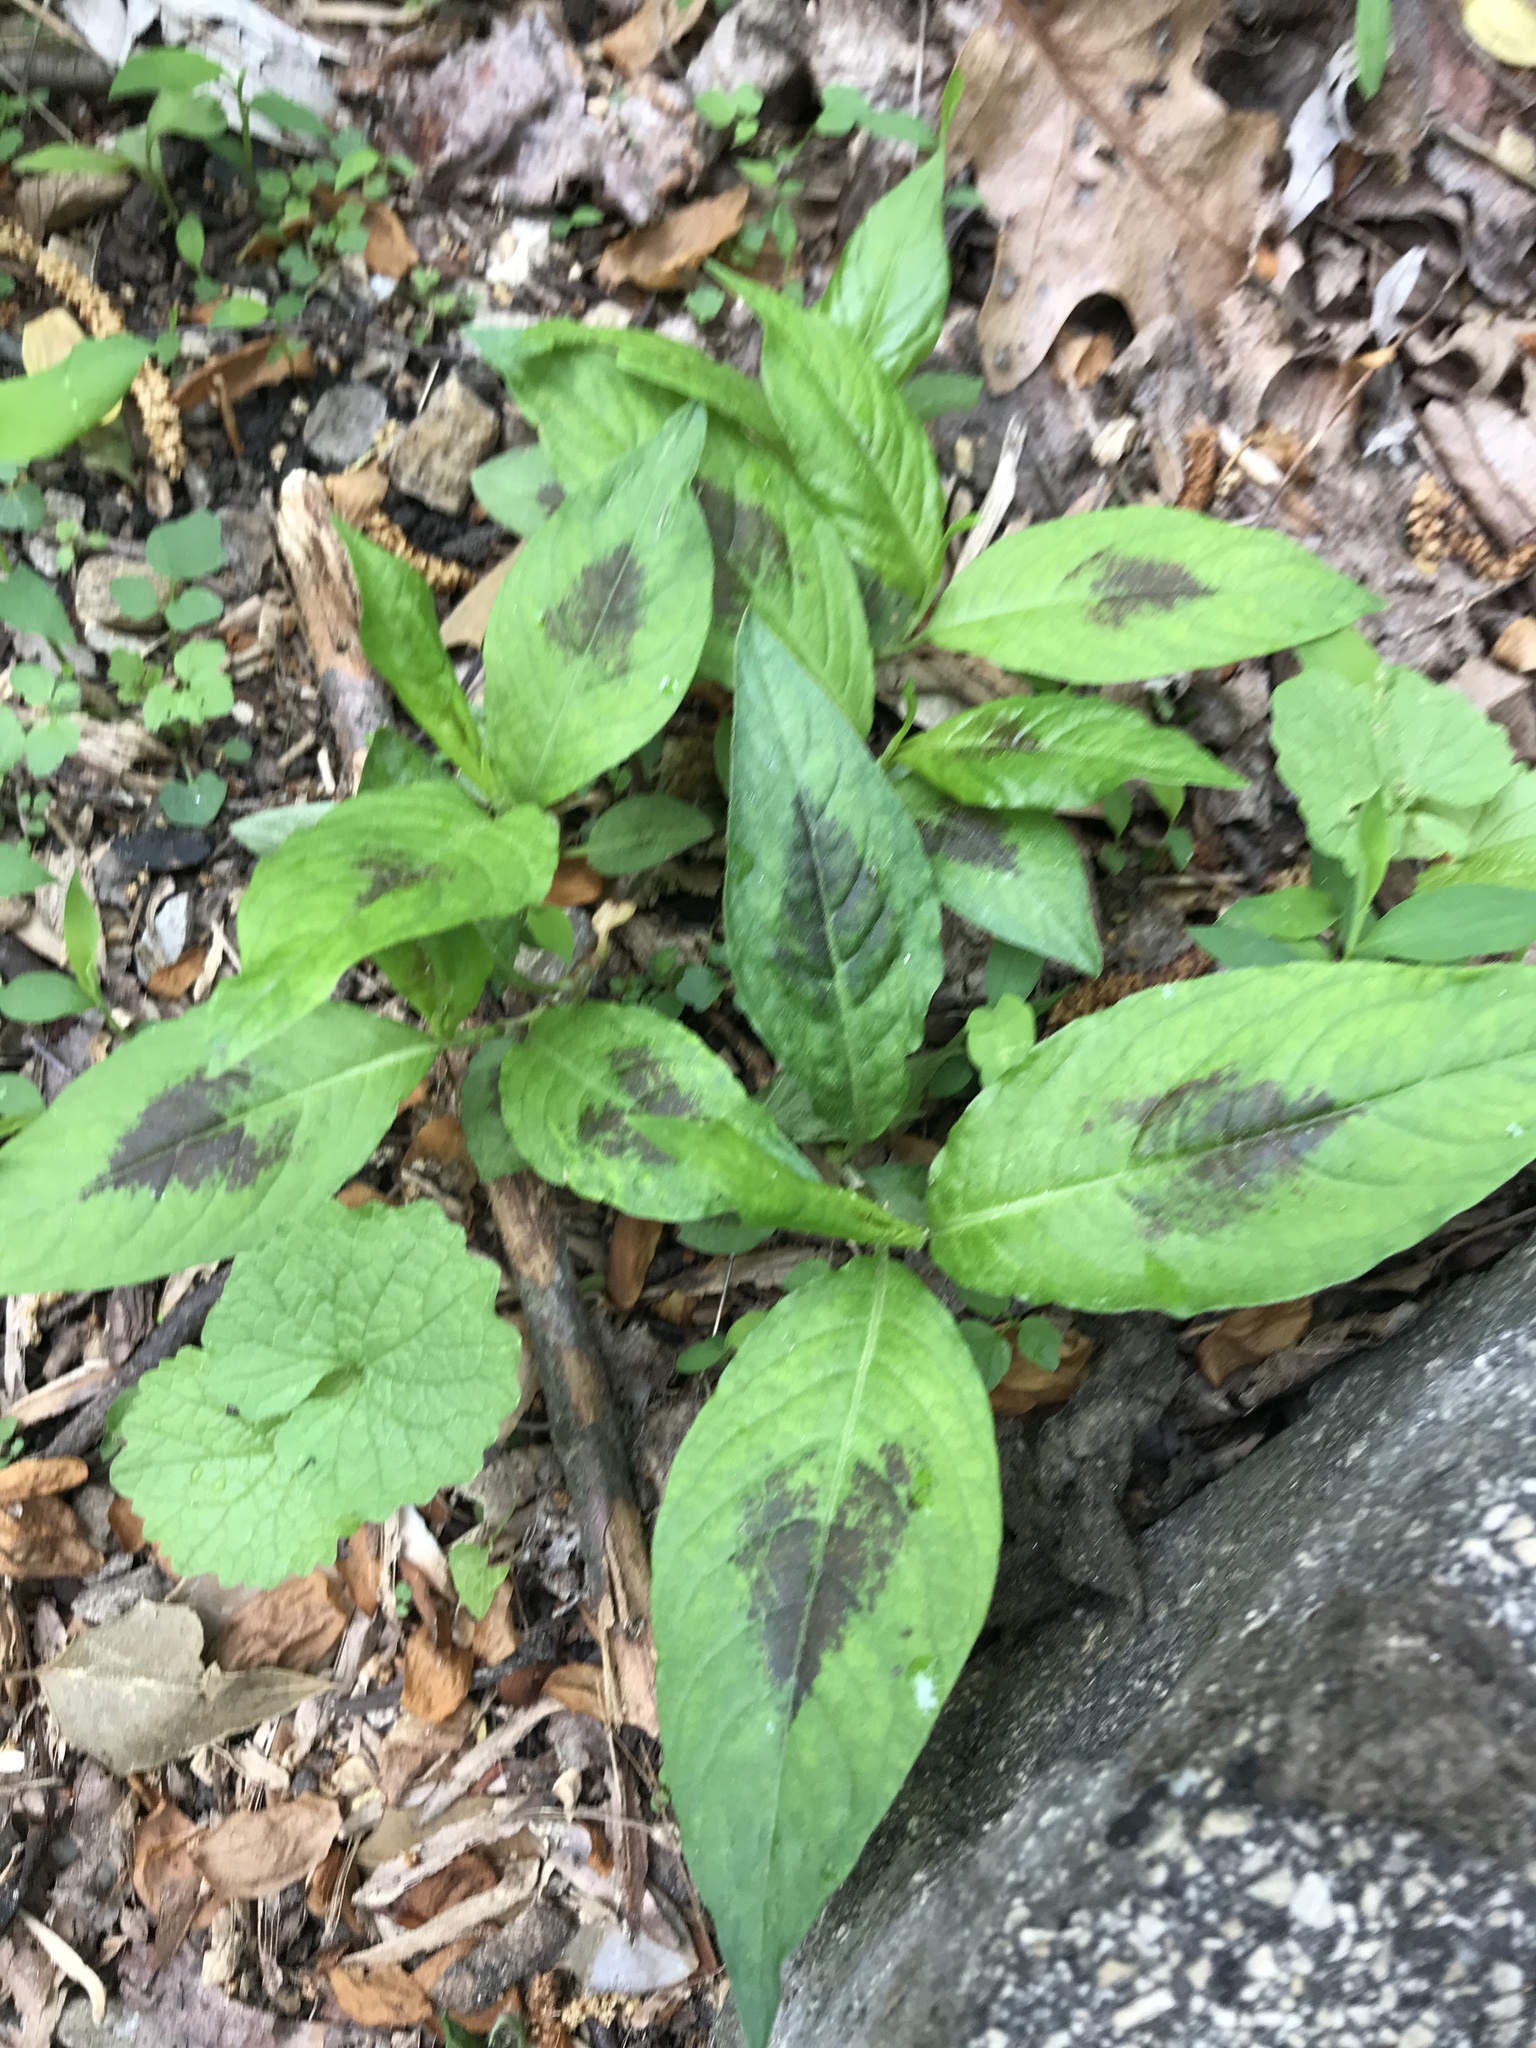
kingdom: Plantae
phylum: Tracheophyta
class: Magnoliopsida
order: Caryophyllales
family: Polygonaceae
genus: Persicaria
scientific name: Persicaria virginiana
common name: Jumpseed
